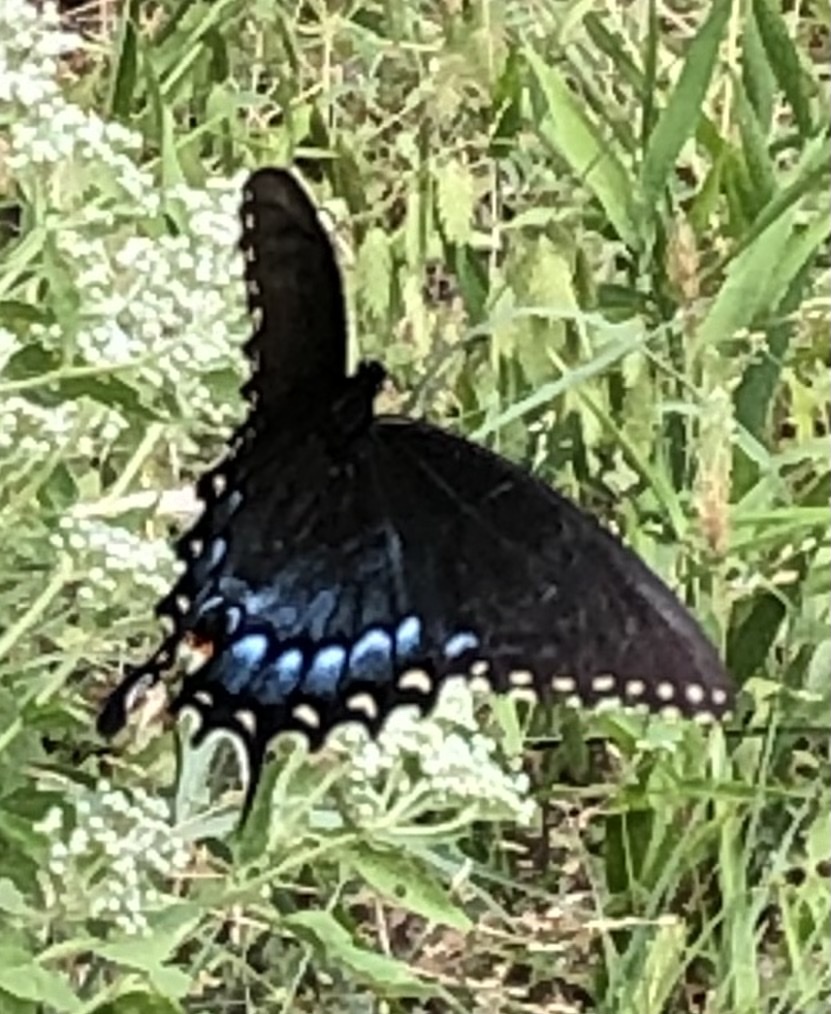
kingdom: Animalia
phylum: Arthropoda
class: Insecta
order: Lepidoptera
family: Papilionidae
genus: Papilio
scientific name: Papilio glaucus
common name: Tiger swallowtail
